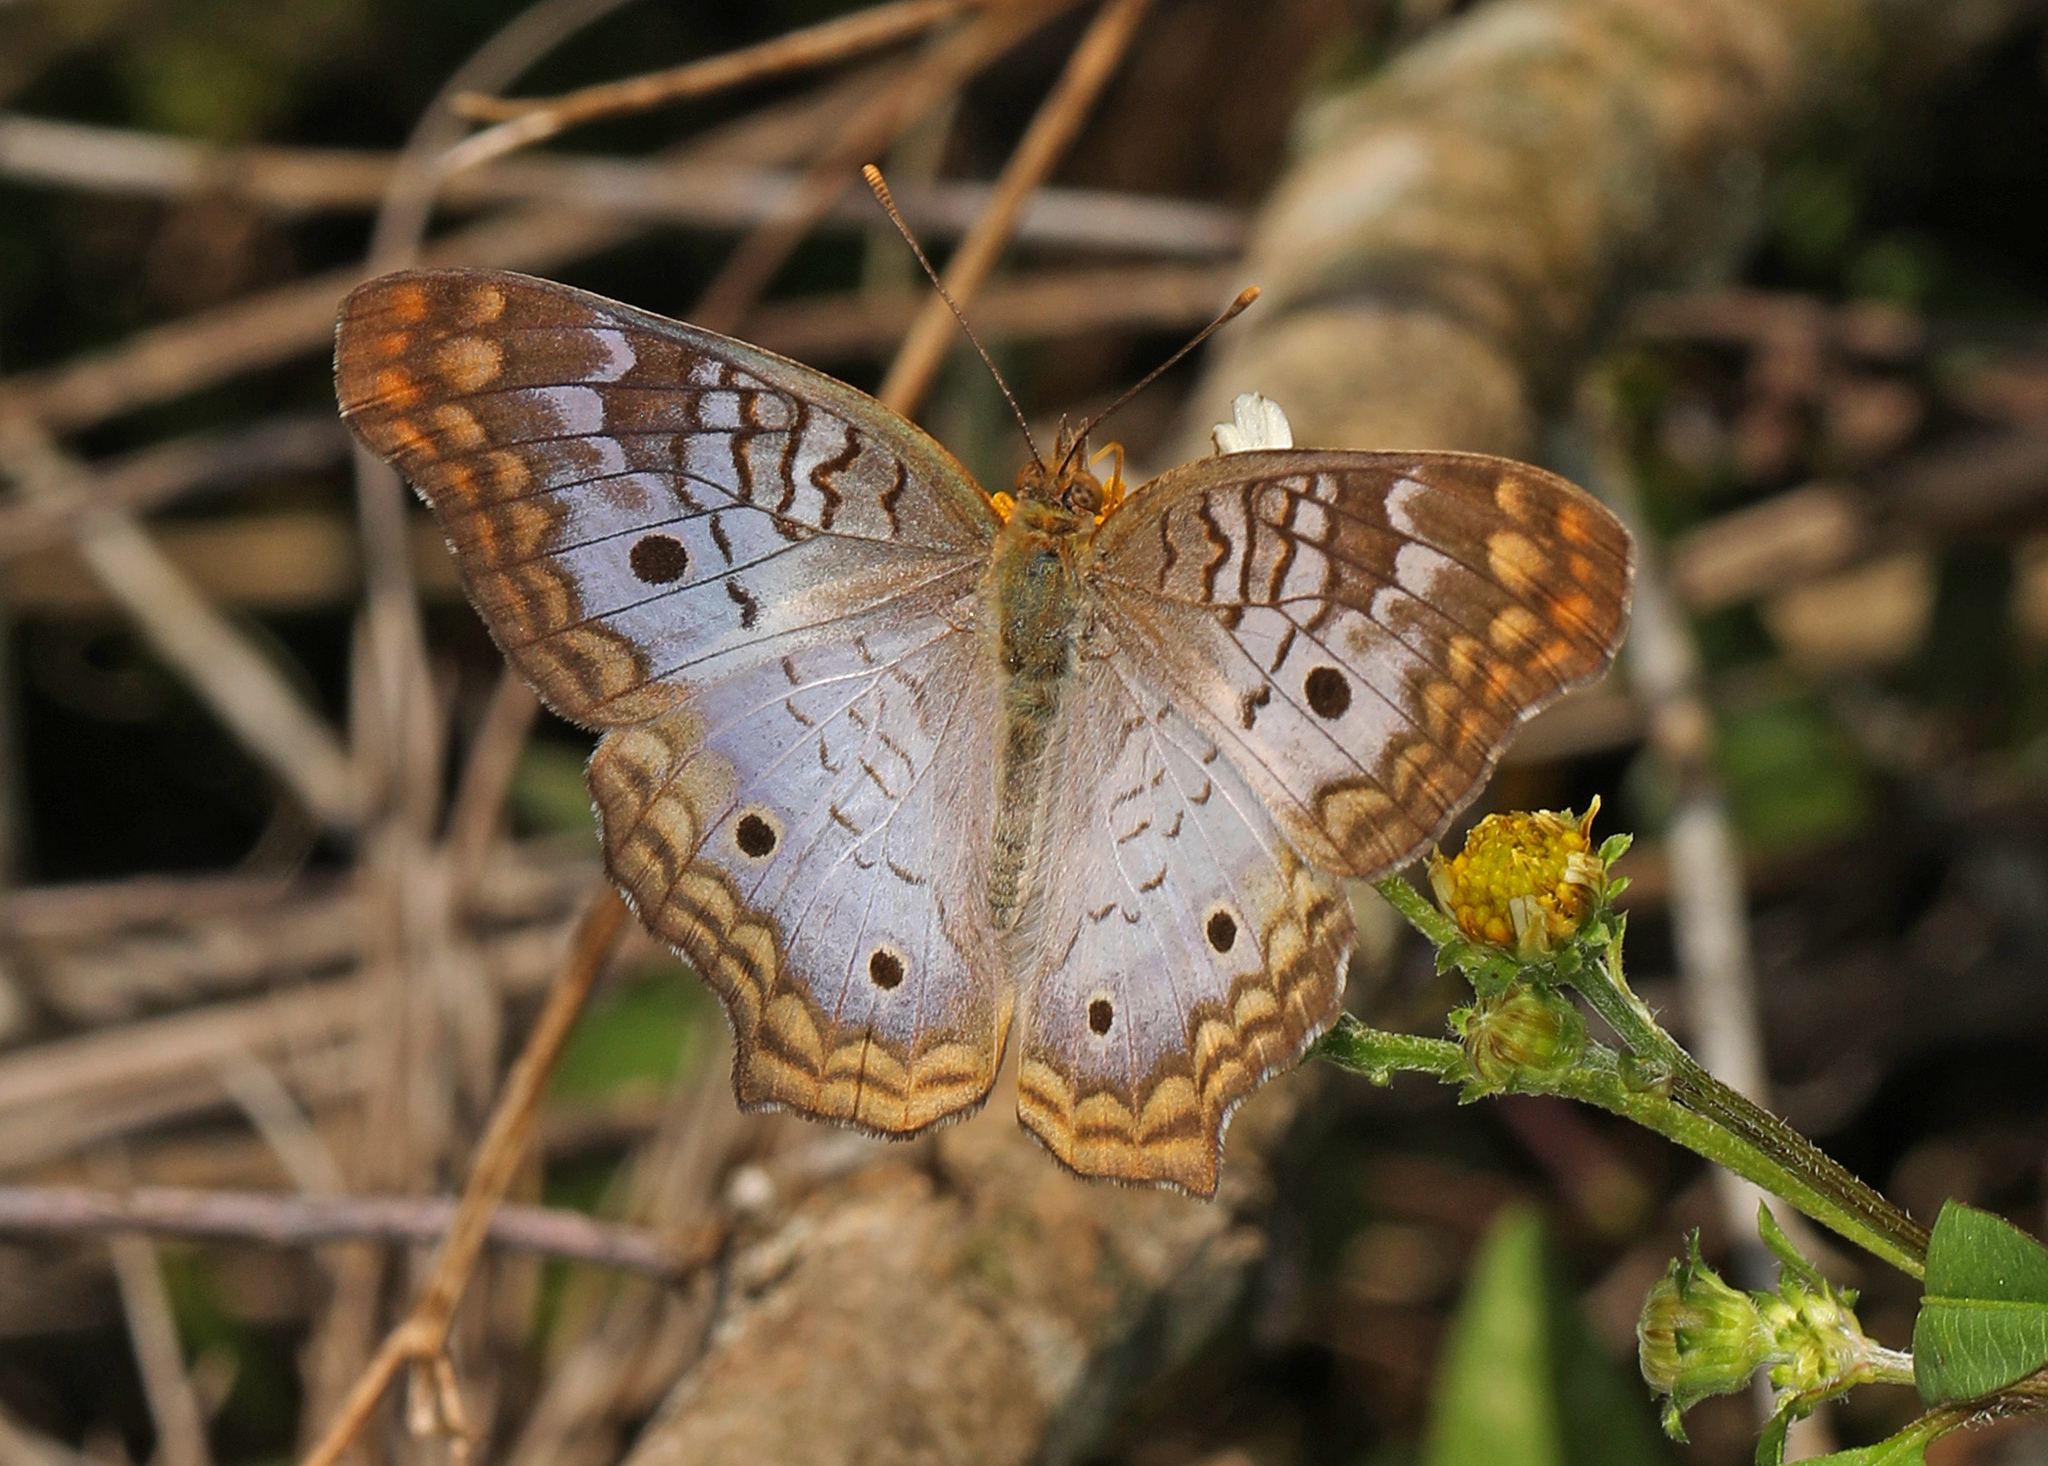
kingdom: Animalia
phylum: Arthropoda
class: Insecta
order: Lepidoptera
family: Nymphalidae
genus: Anartia
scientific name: Anartia jatrophae
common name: White peacock
